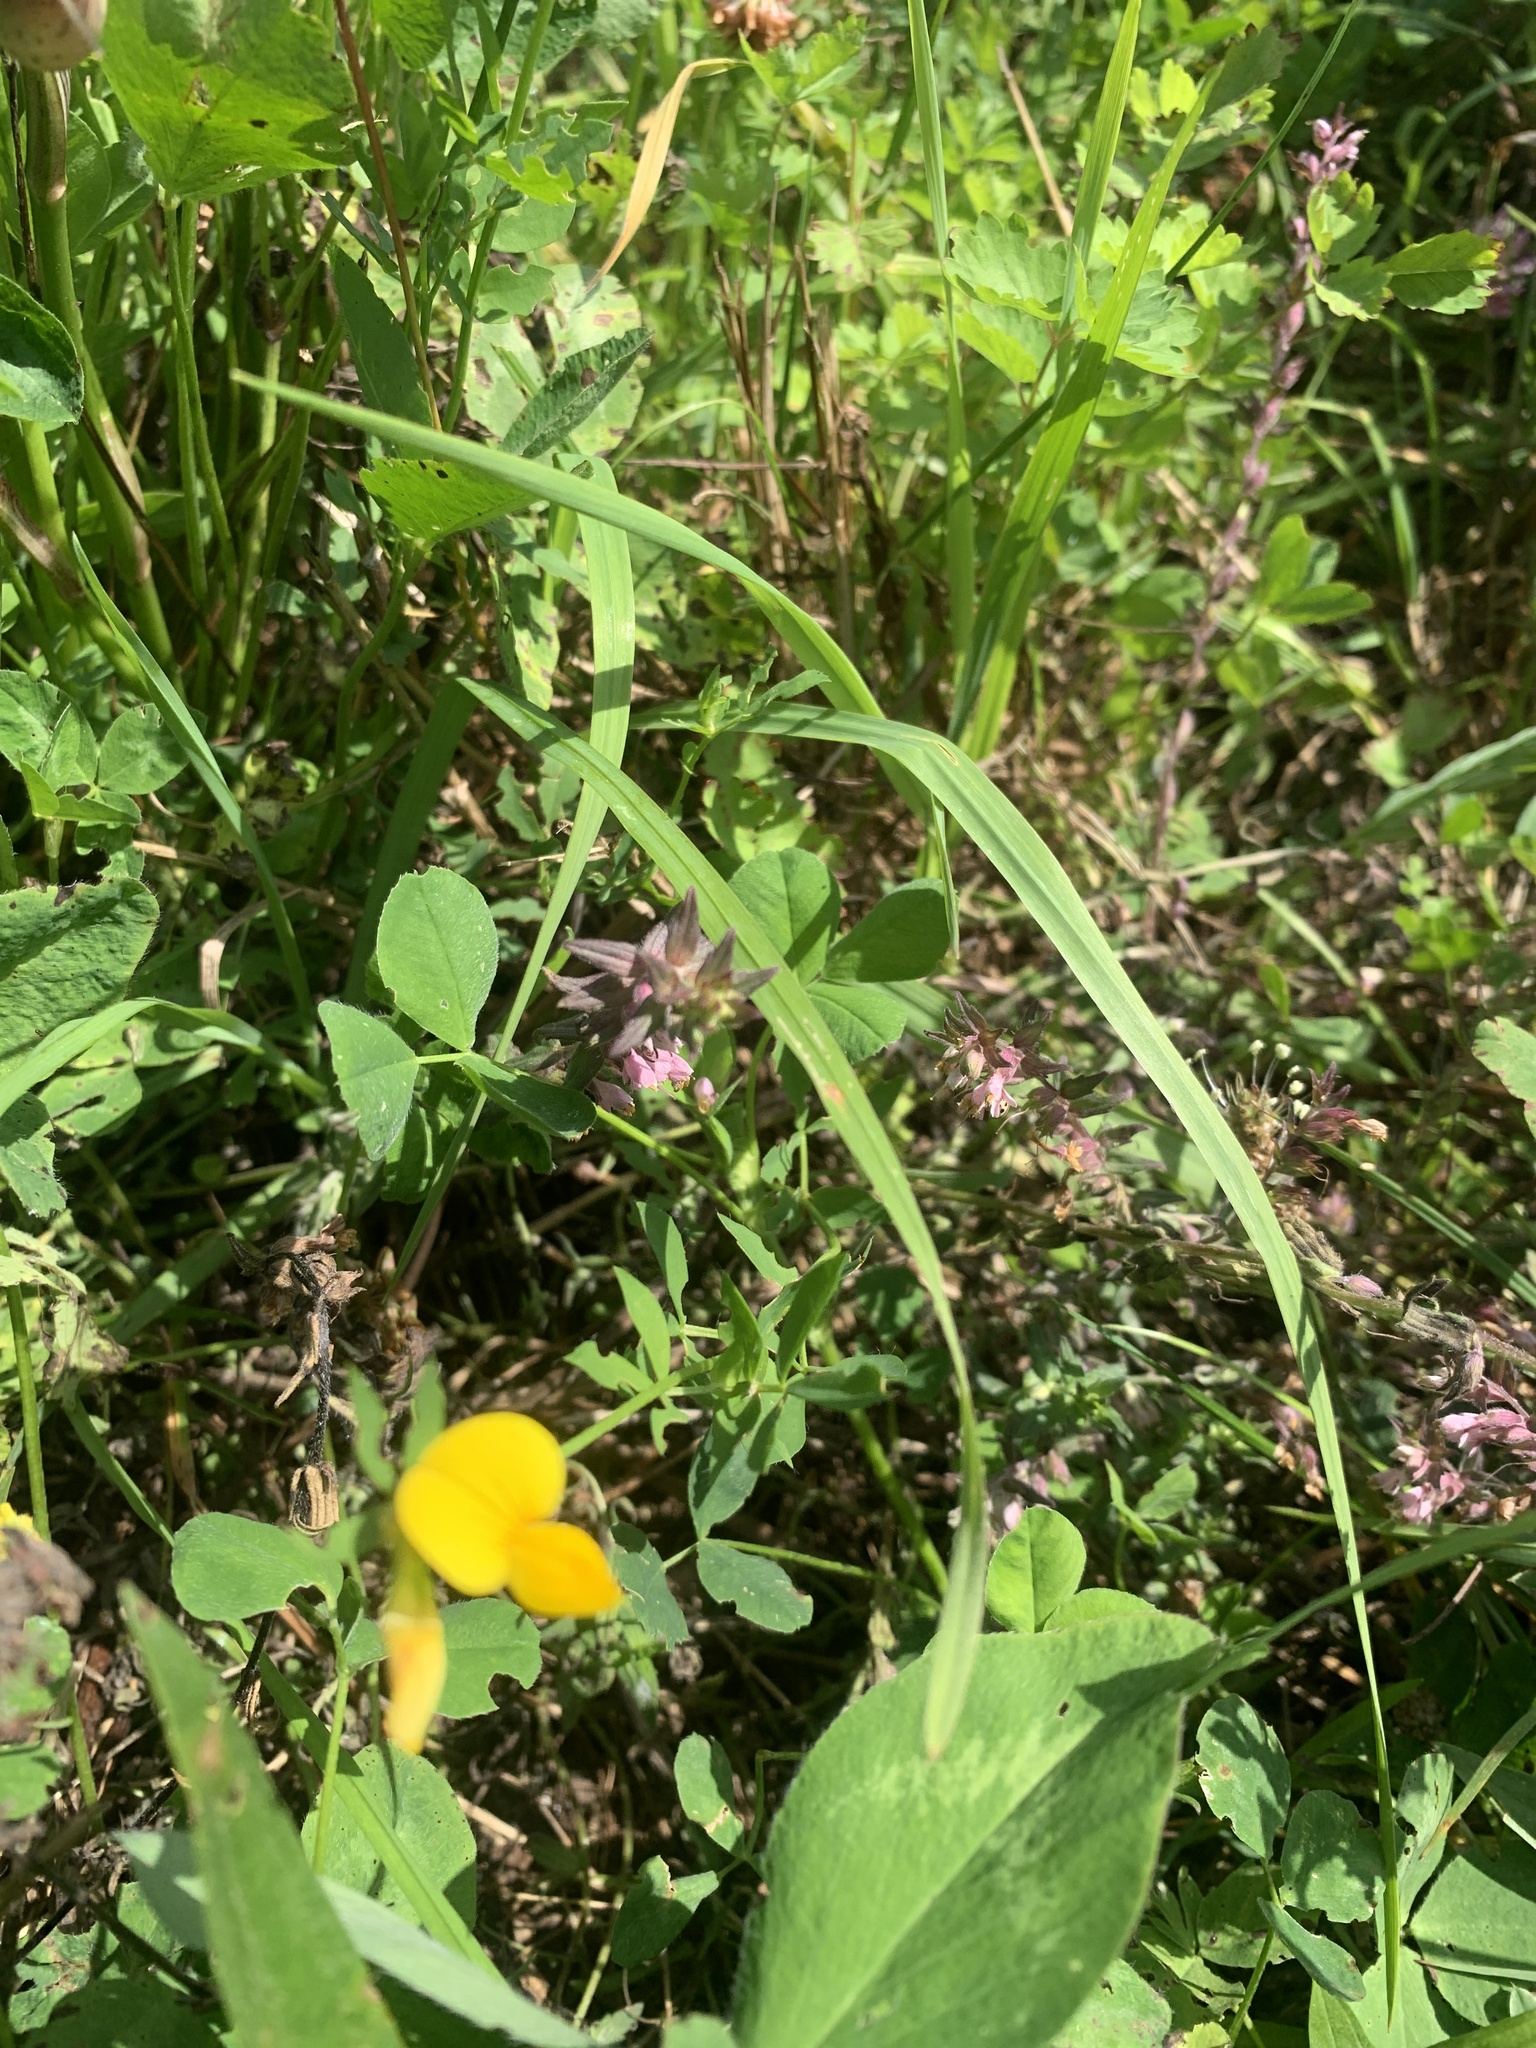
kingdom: Plantae
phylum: Tracheophyta
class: Magnoliopsida
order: Fabales
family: Fabaceae
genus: Lotus
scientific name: Lotus corniculatus
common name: Common bird's-foot-trefoil
